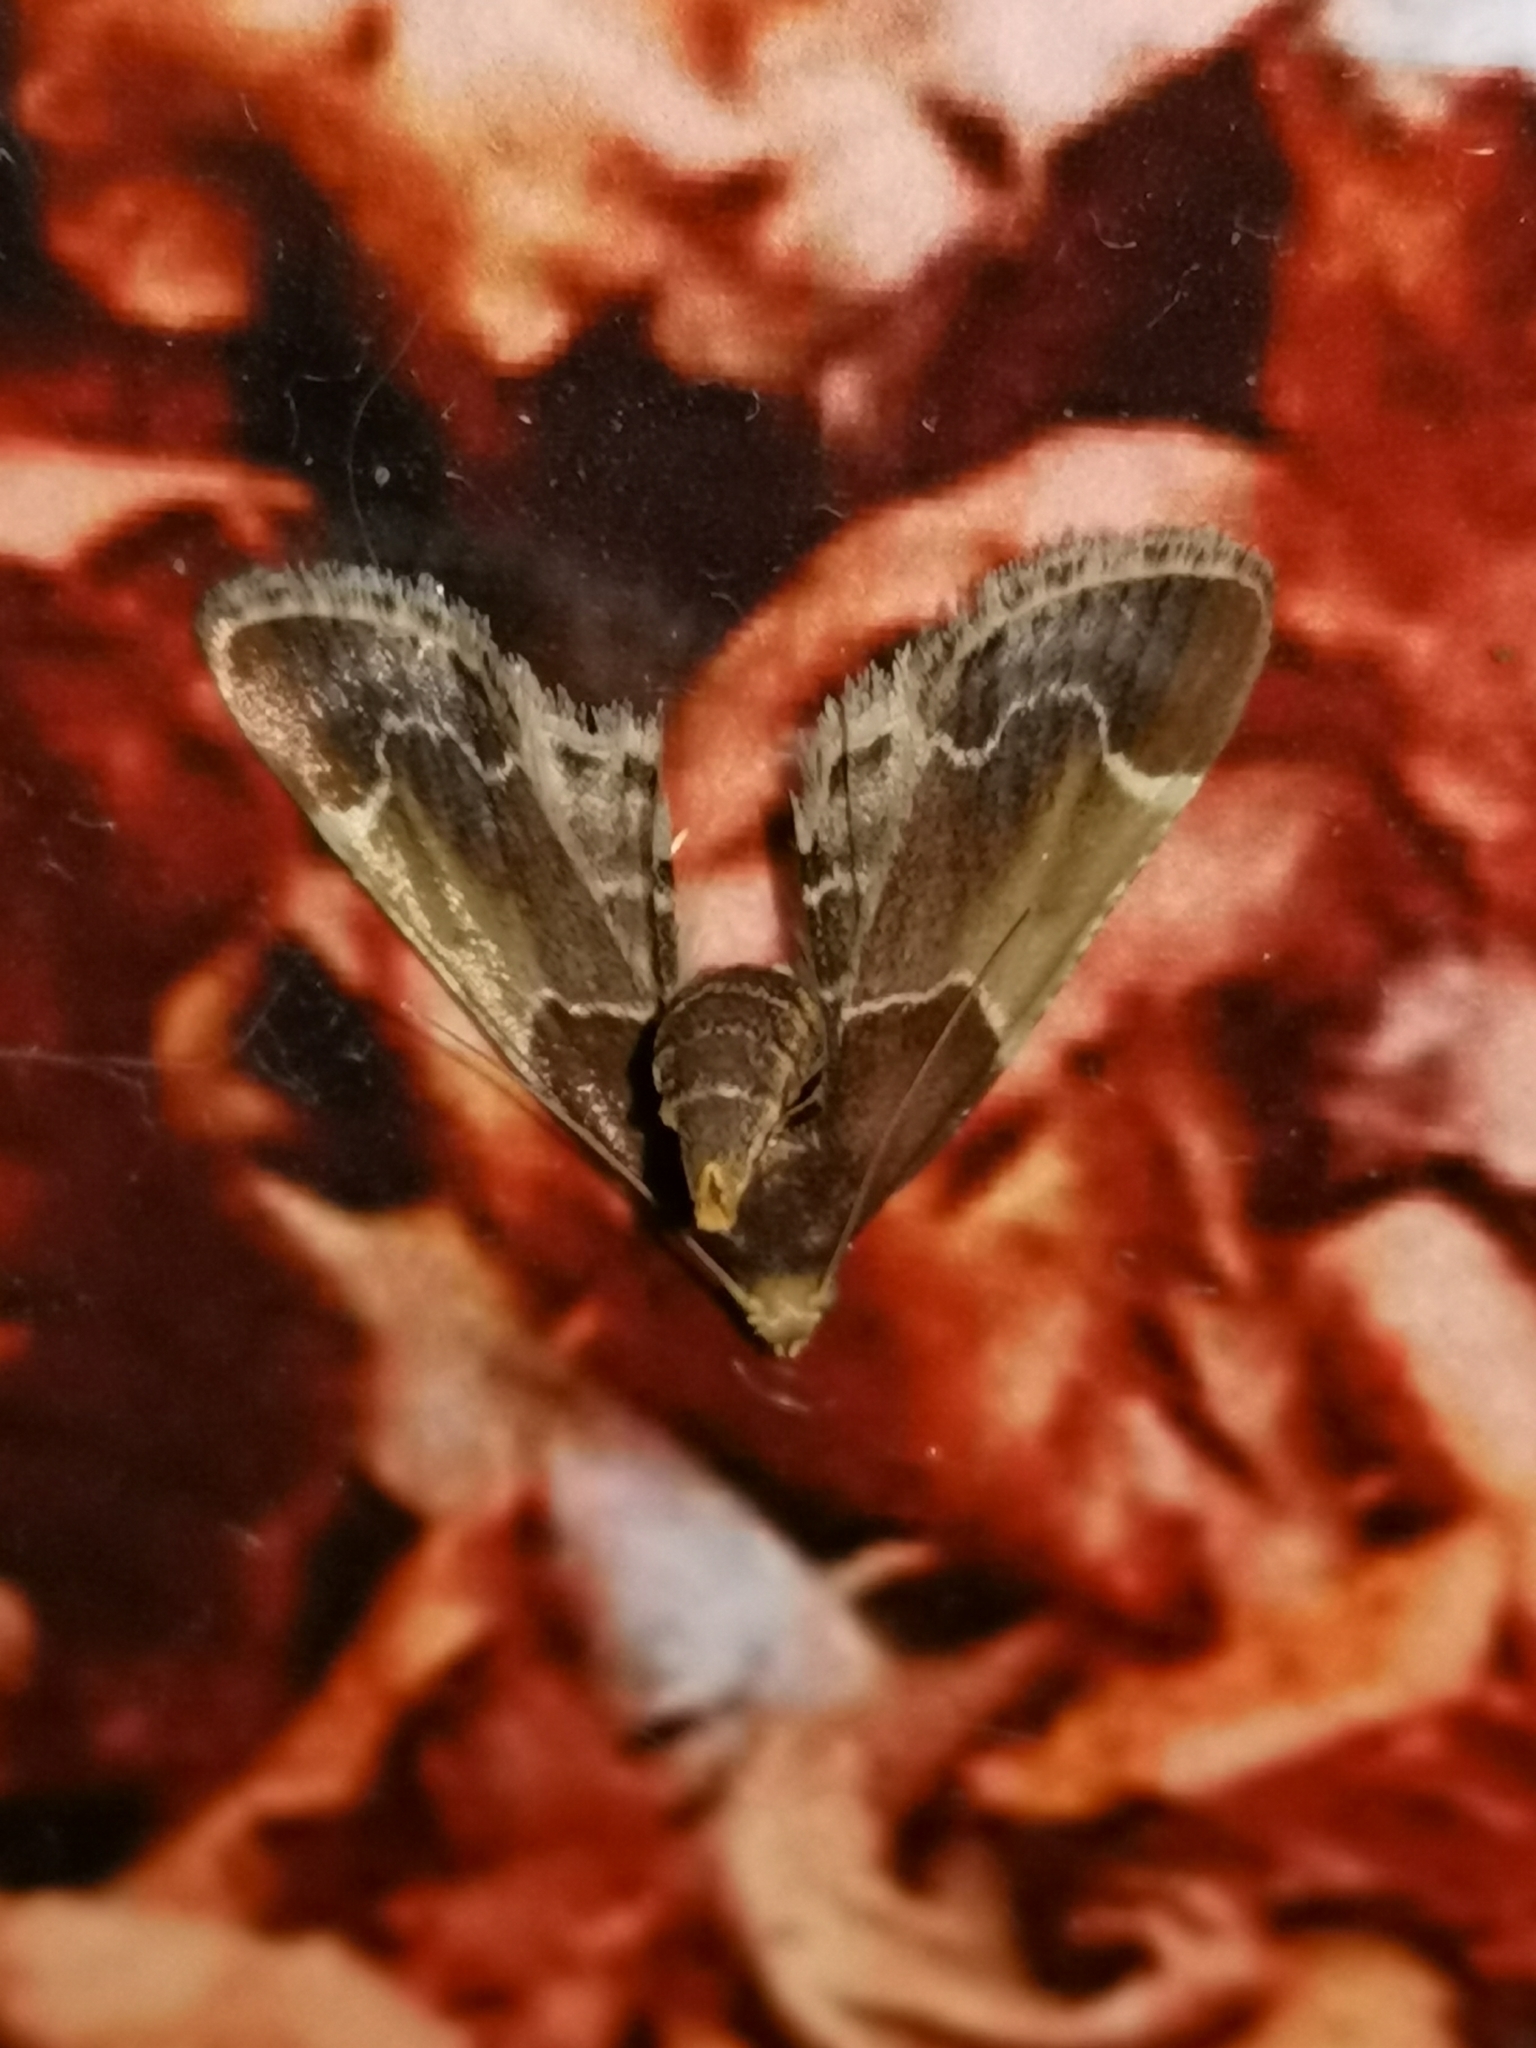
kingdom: Animalia
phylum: Arthropoda
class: Insecta
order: Lepidoptera
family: Pyralidae
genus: Pyralis
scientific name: Pyralis farinalis
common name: Meal moth
